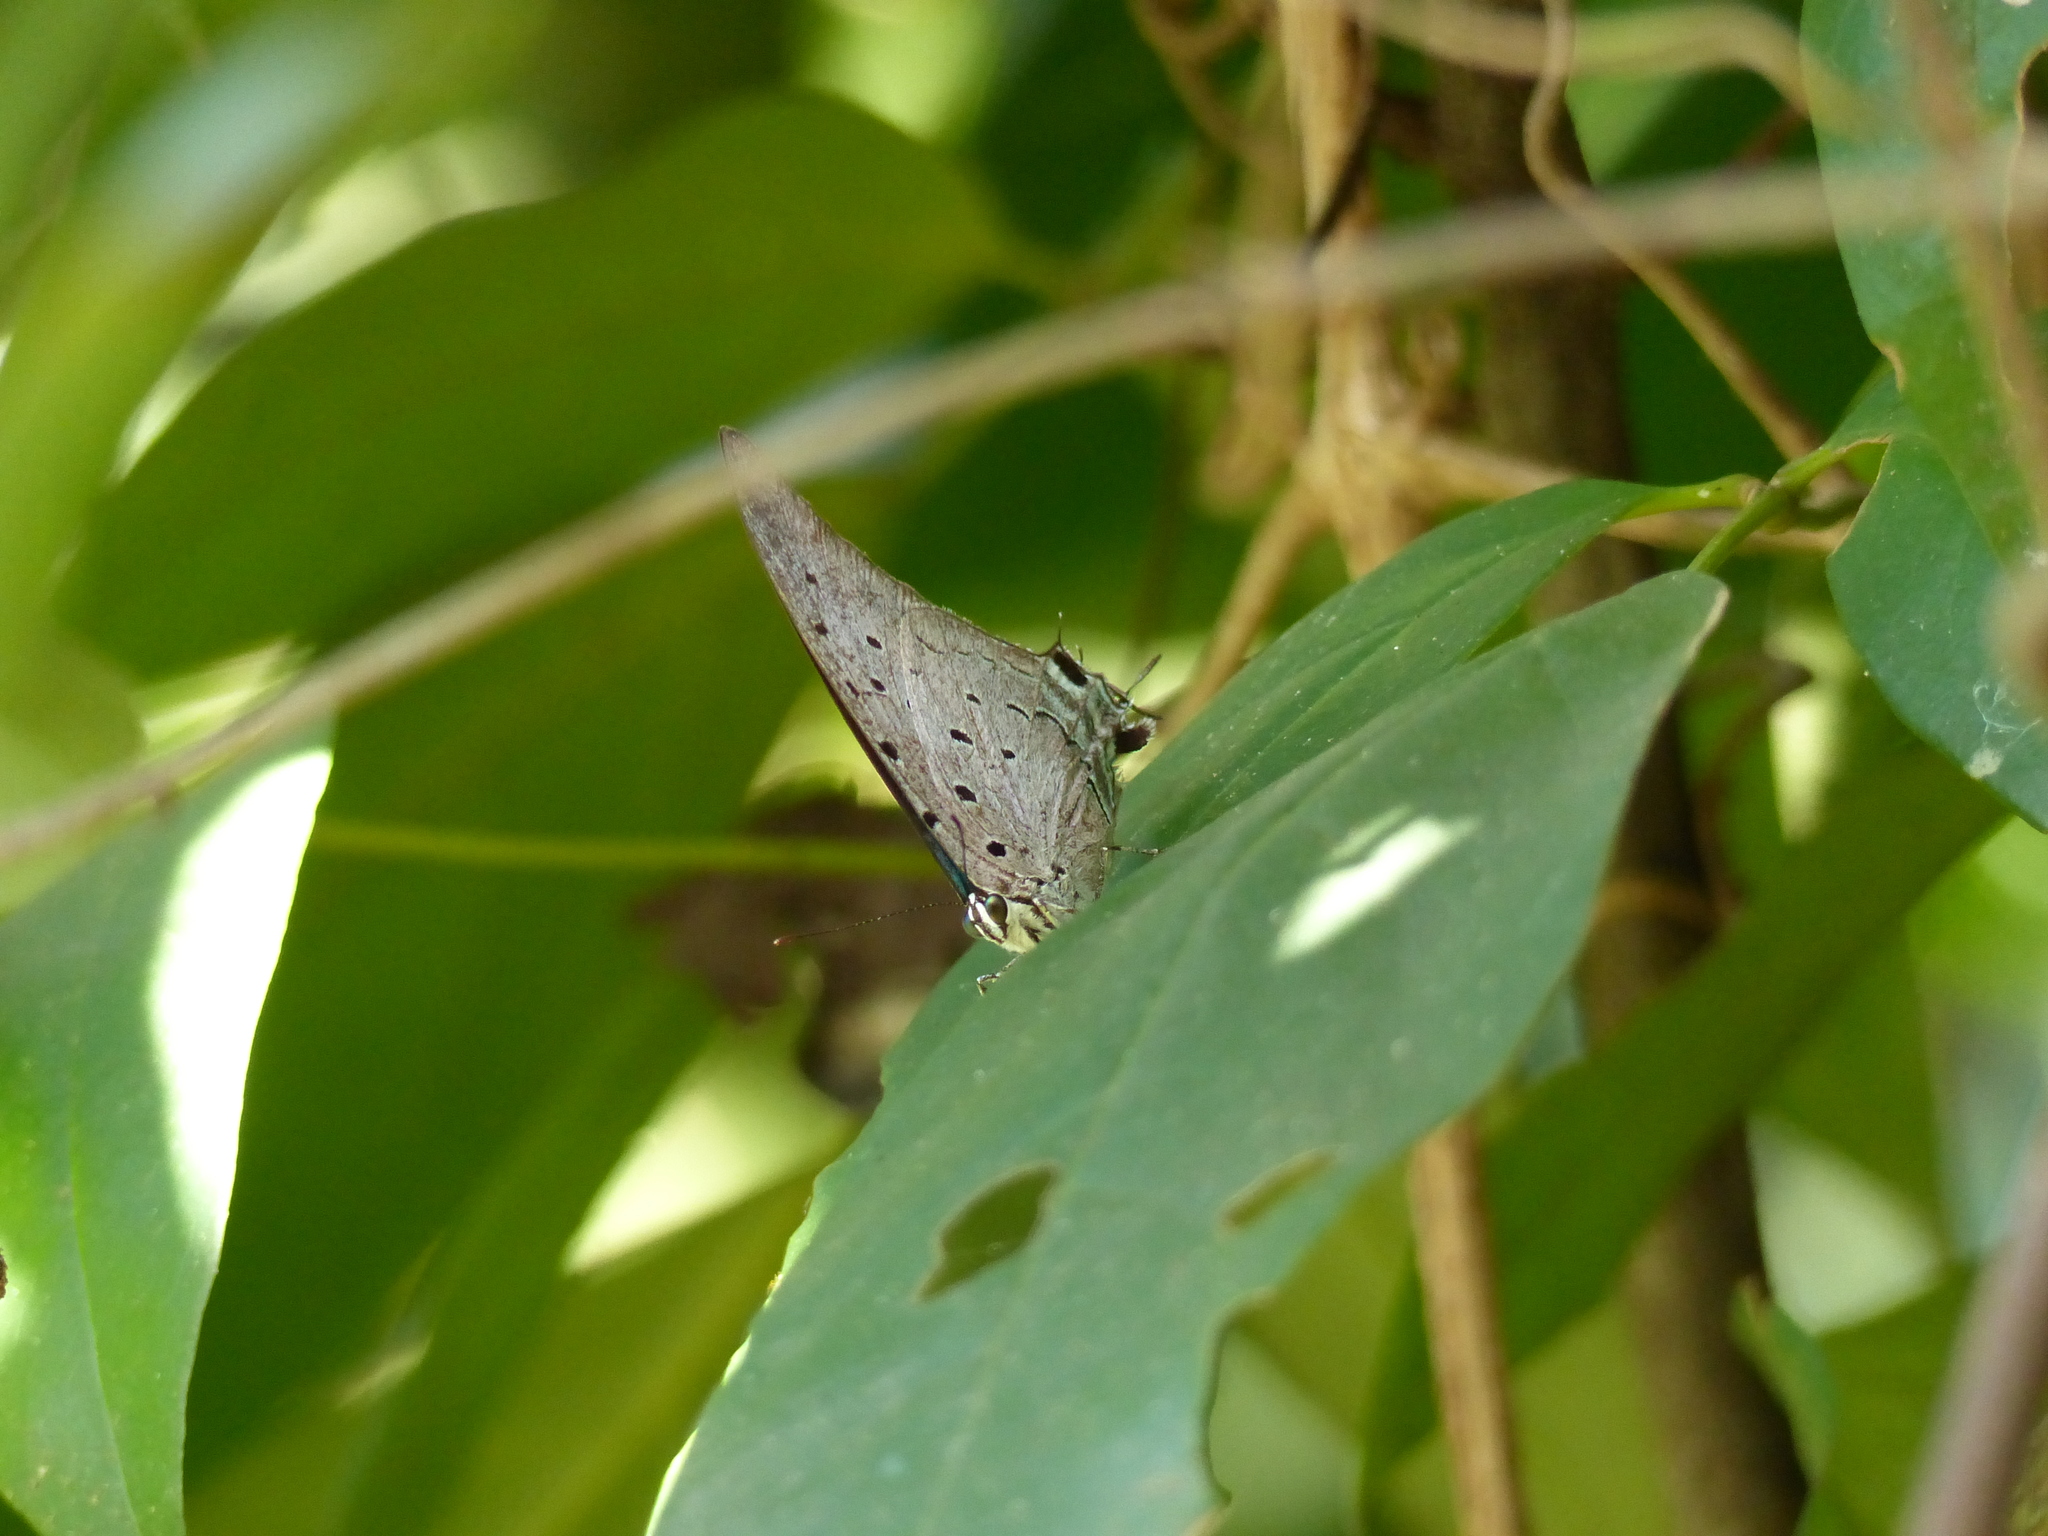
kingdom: Animalia
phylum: Arthropoda
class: Insecta
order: Lepidoptera
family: Lycaenidae
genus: Pseudolycaena
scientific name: Pseudolycaena marsyas
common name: Marsyas hairstreak
